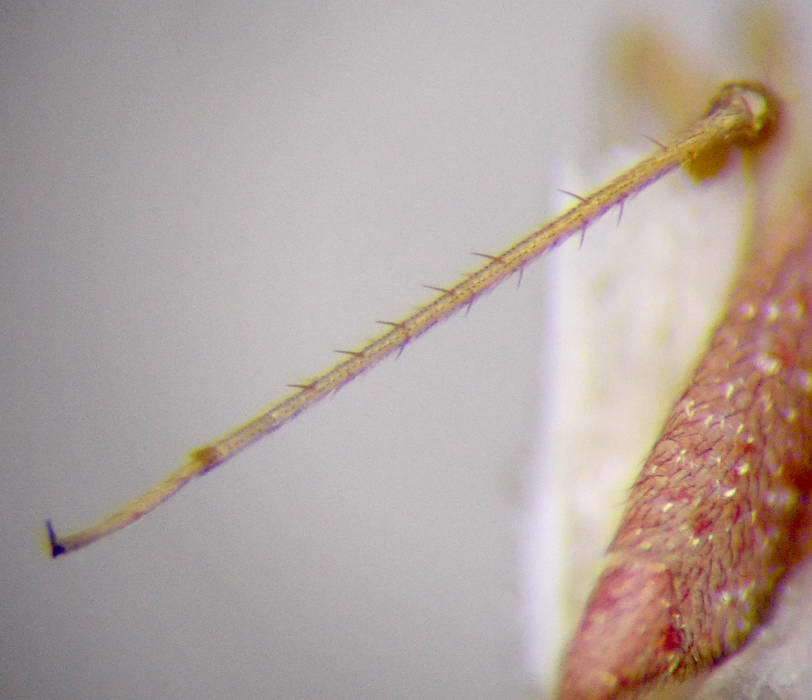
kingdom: Animalia
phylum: Arthropoda
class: Insecta
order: Hemiptera
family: Miridae
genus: Orthotylus
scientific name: Orthotylus rubidus
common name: Plant bug
